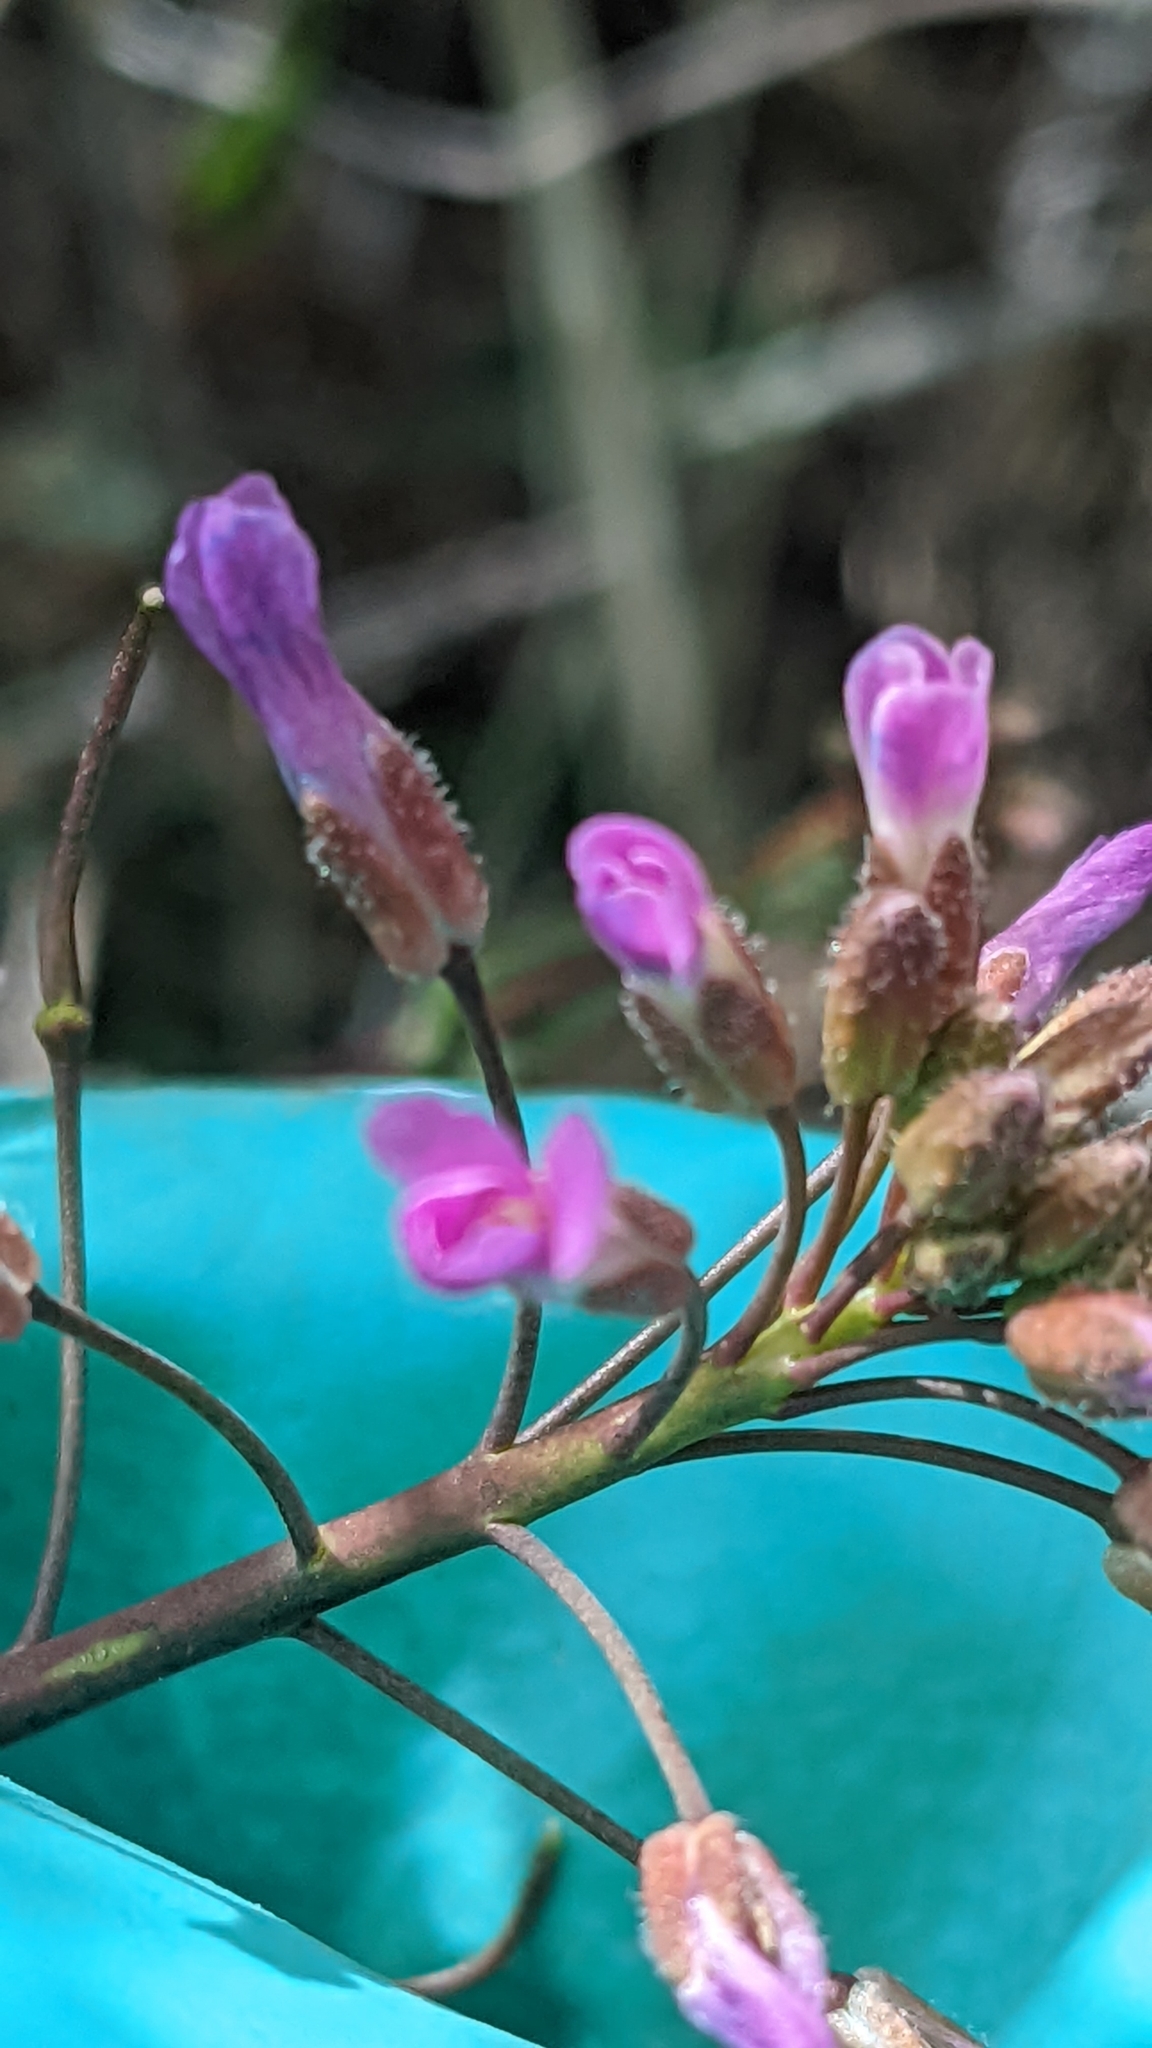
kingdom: Plantae
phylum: Tracheophyta
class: Magnoliopsida
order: Brassicales
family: Brassicaceae
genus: Boechera
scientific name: Boechera perennans
